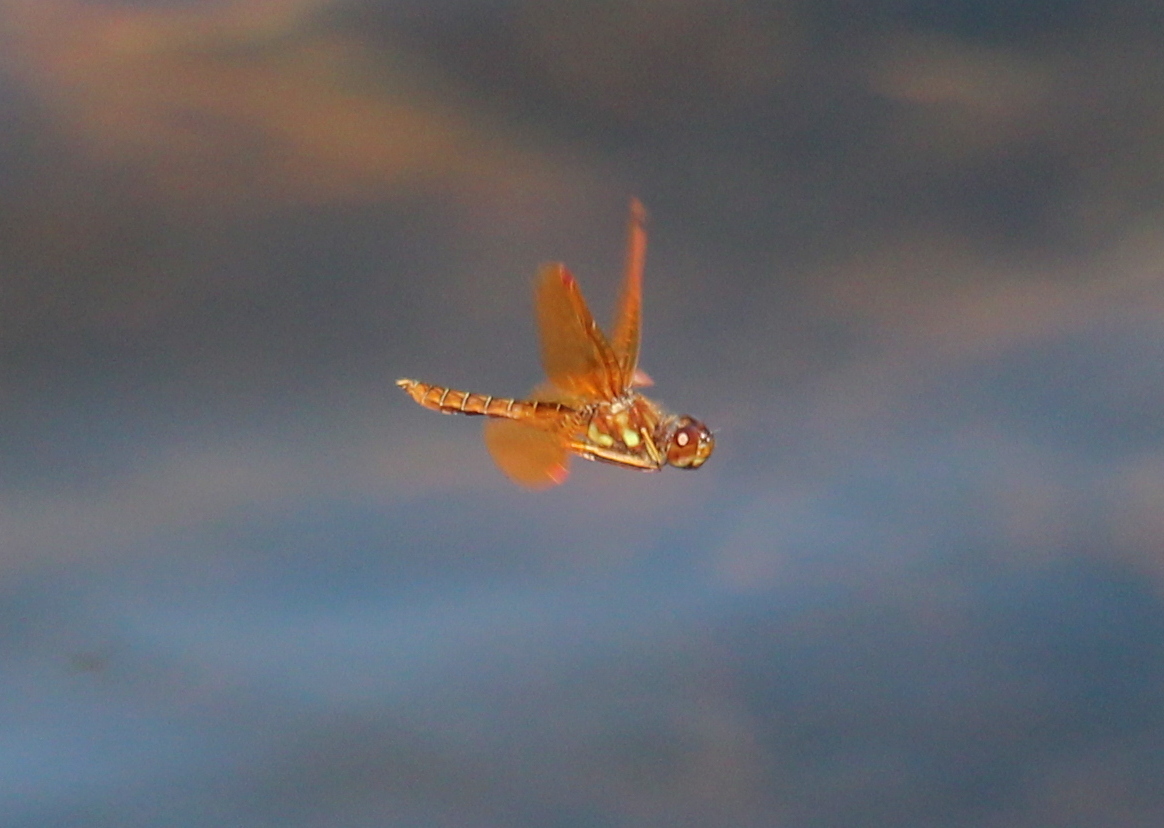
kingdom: Animalia
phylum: Arthropoda
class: Insecta
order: Odonata
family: Libellulidae
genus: Perithemis
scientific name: Perithemis tenera
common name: Eastern amberwing
